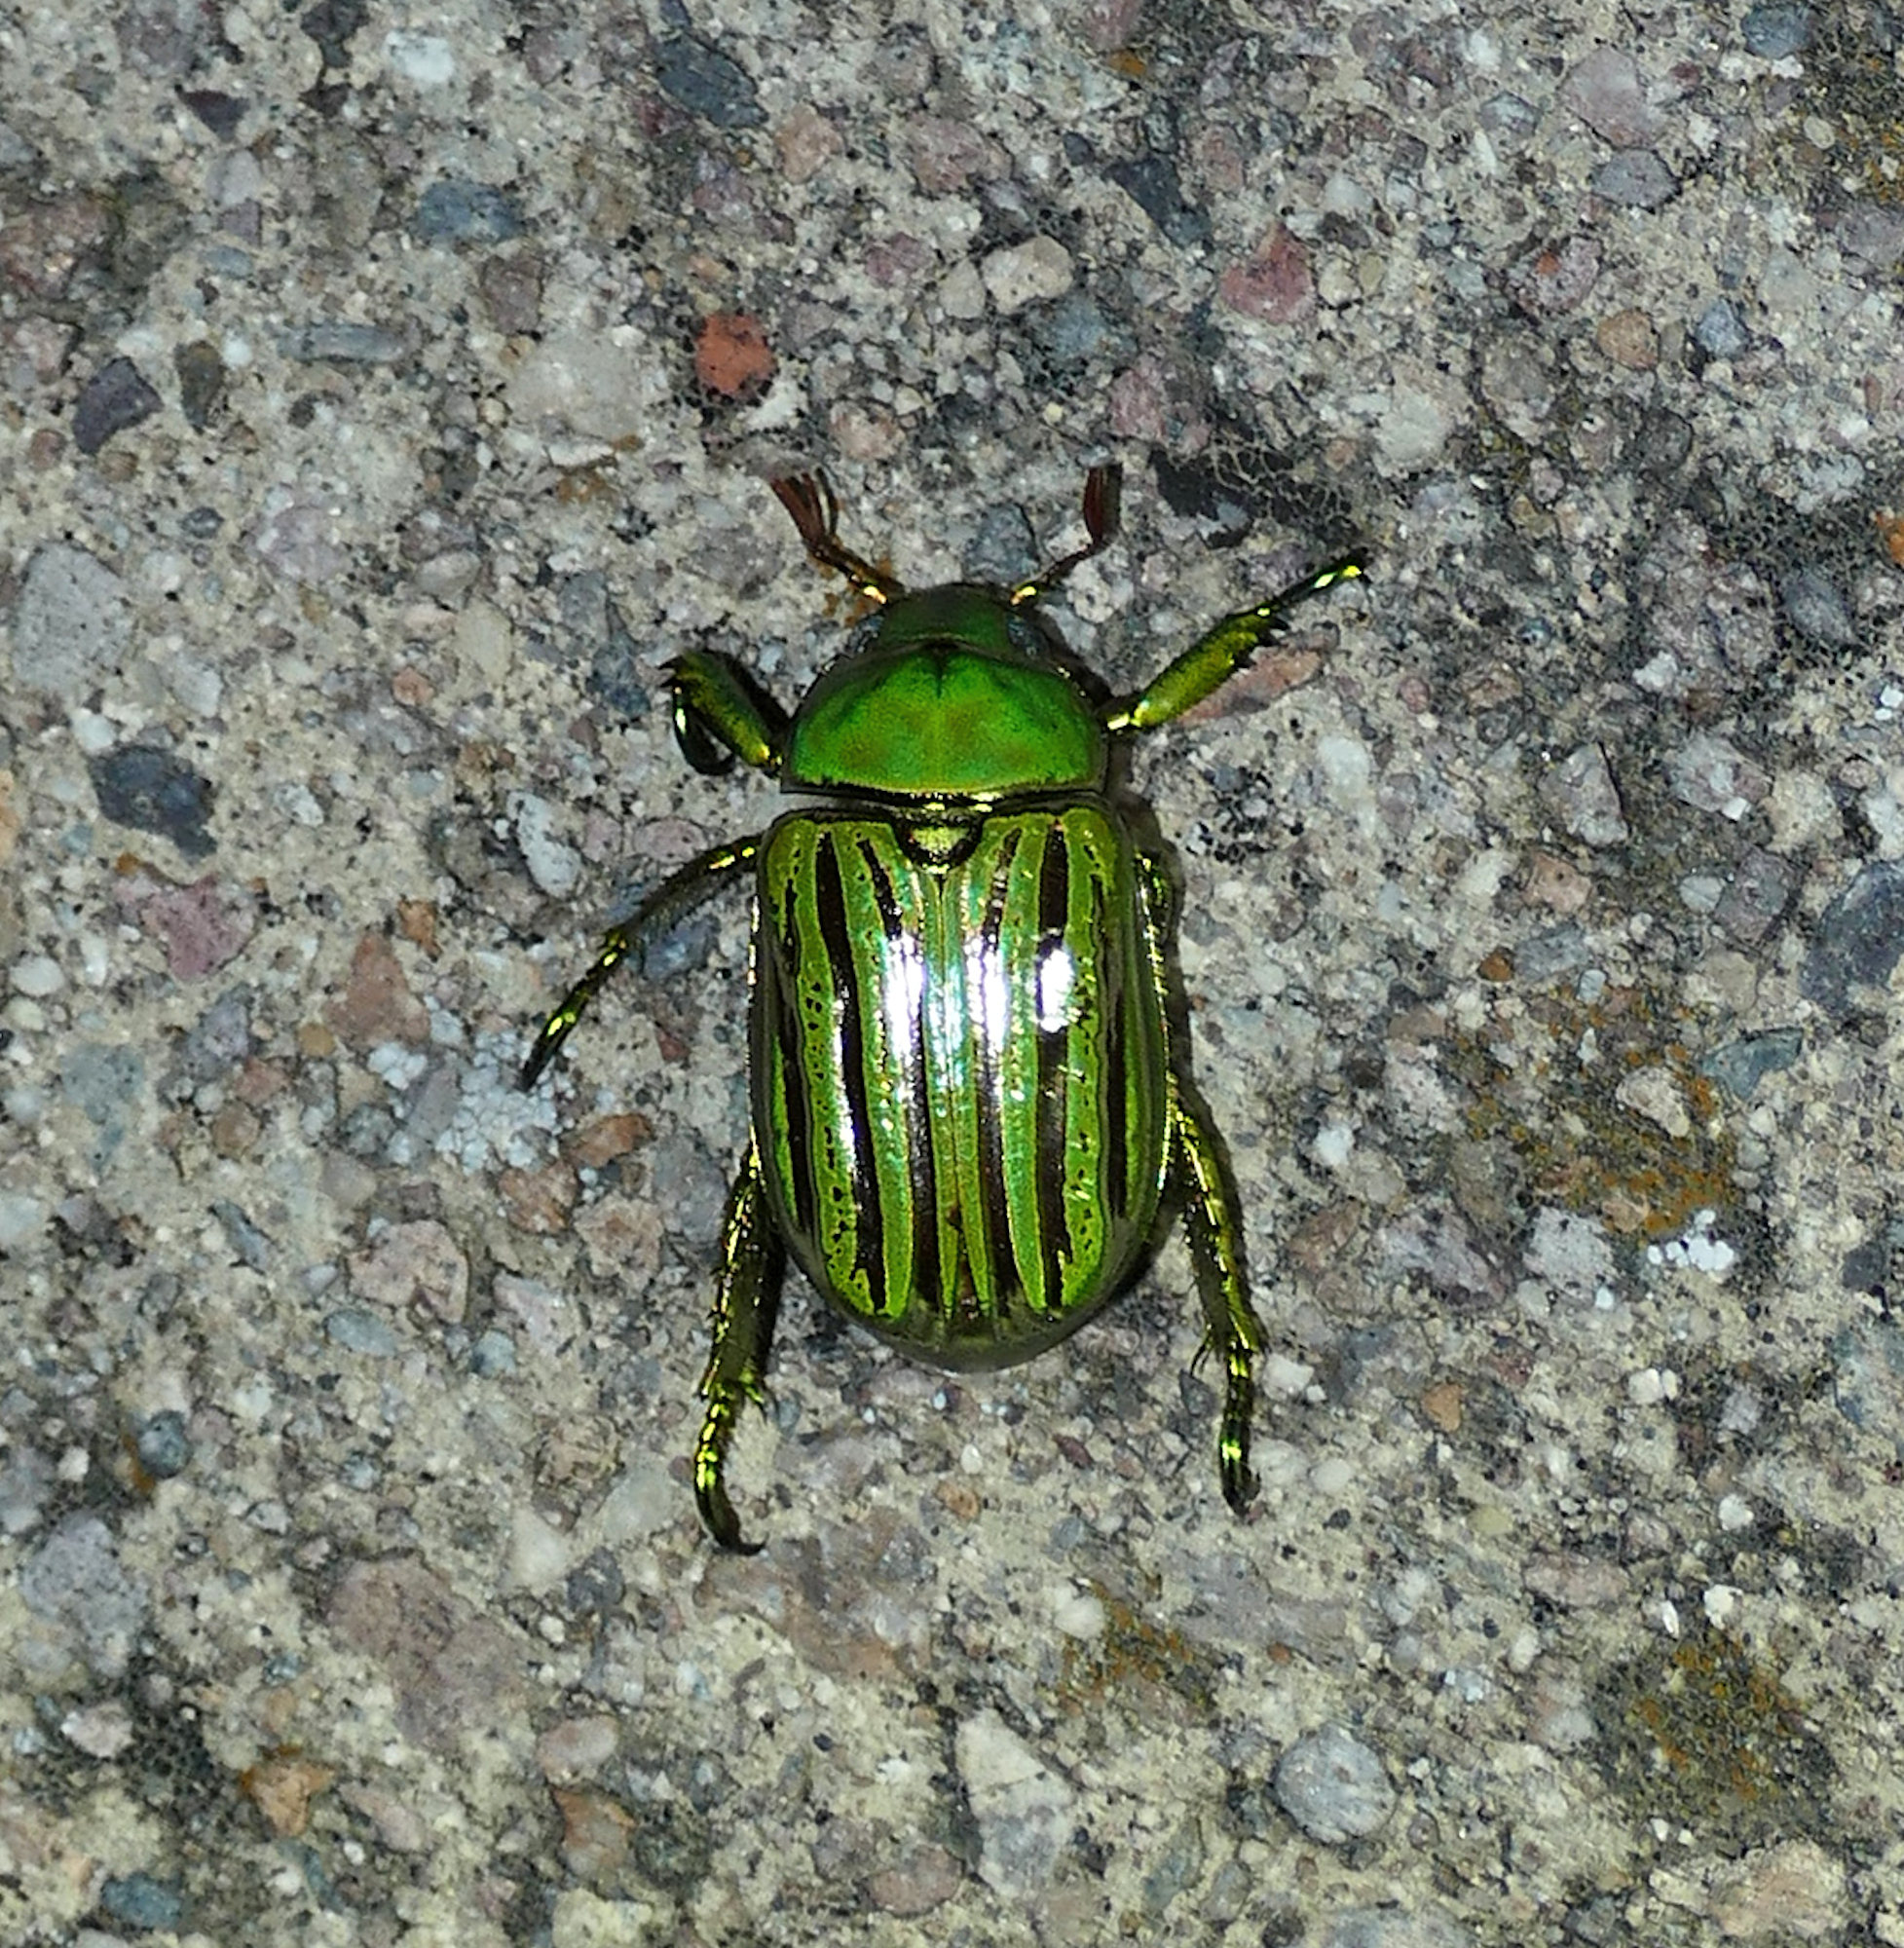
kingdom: Animalia
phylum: Arthropoda
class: Insecta
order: Coleoptera
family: Scarabaeidae
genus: Chrysina
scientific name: Chrysina gloriosa
